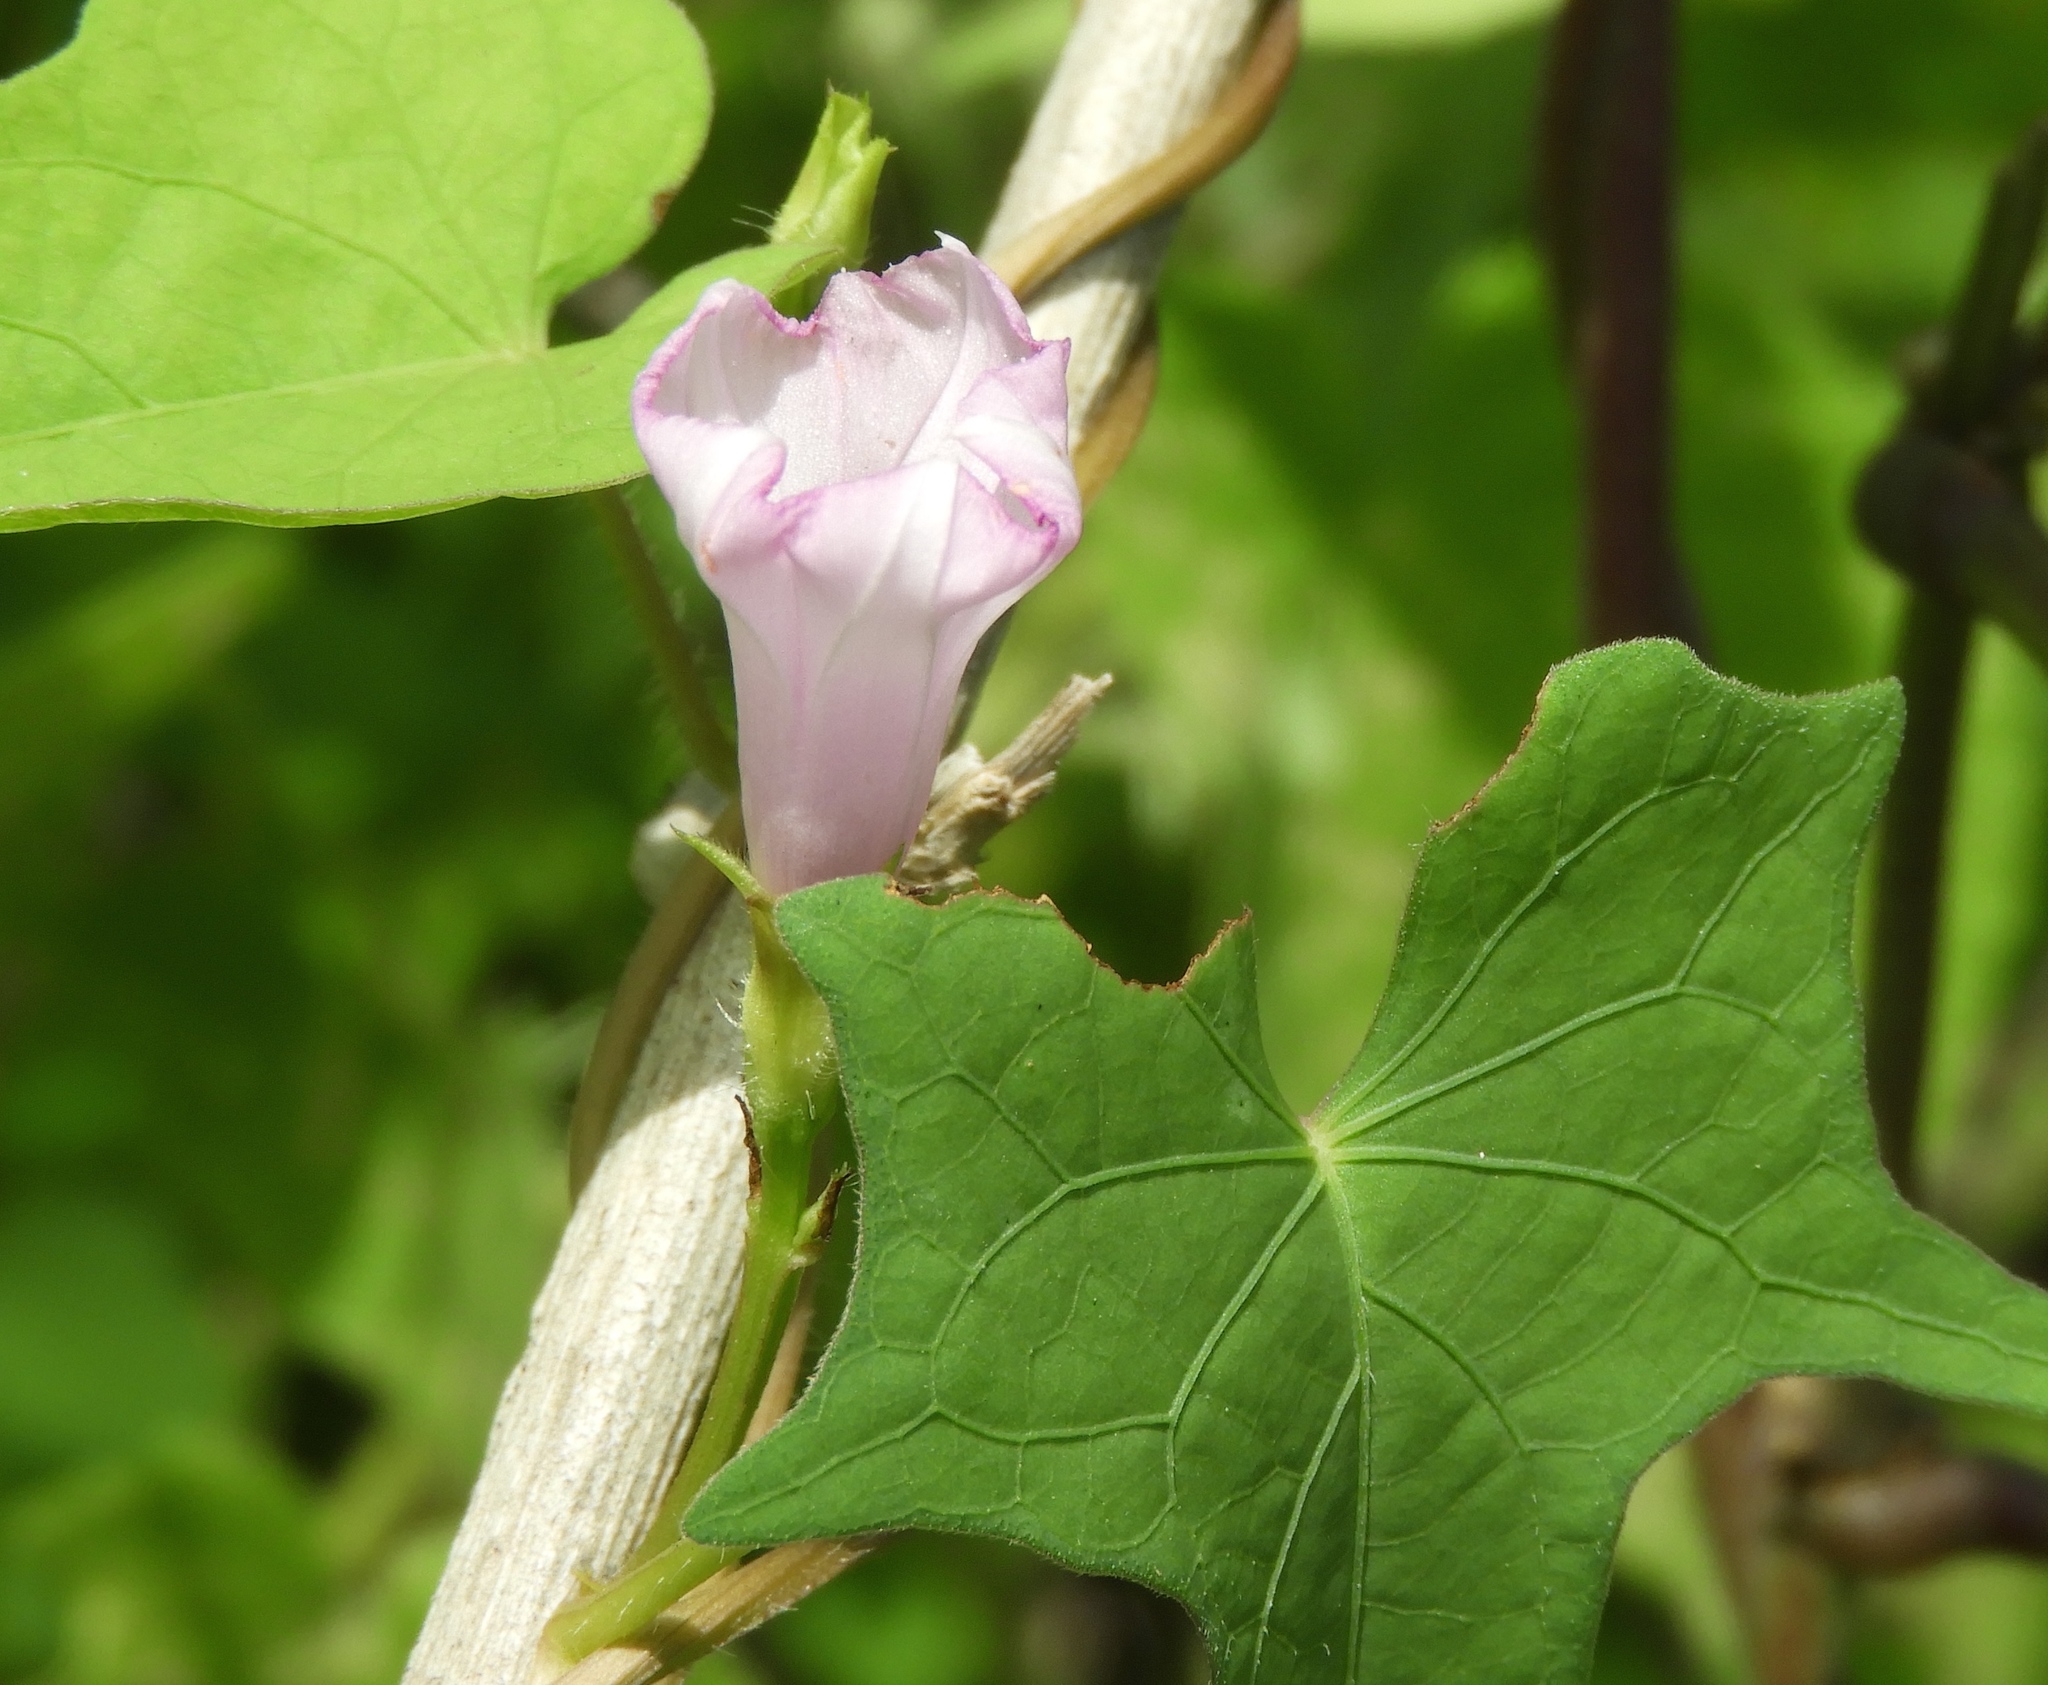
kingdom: Plantae
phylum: Tracheophyta
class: Magnoliopsida
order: Solanales
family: Convolvulaceae
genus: Ipomoea
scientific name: Ipomoea triloba
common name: Little-bell
